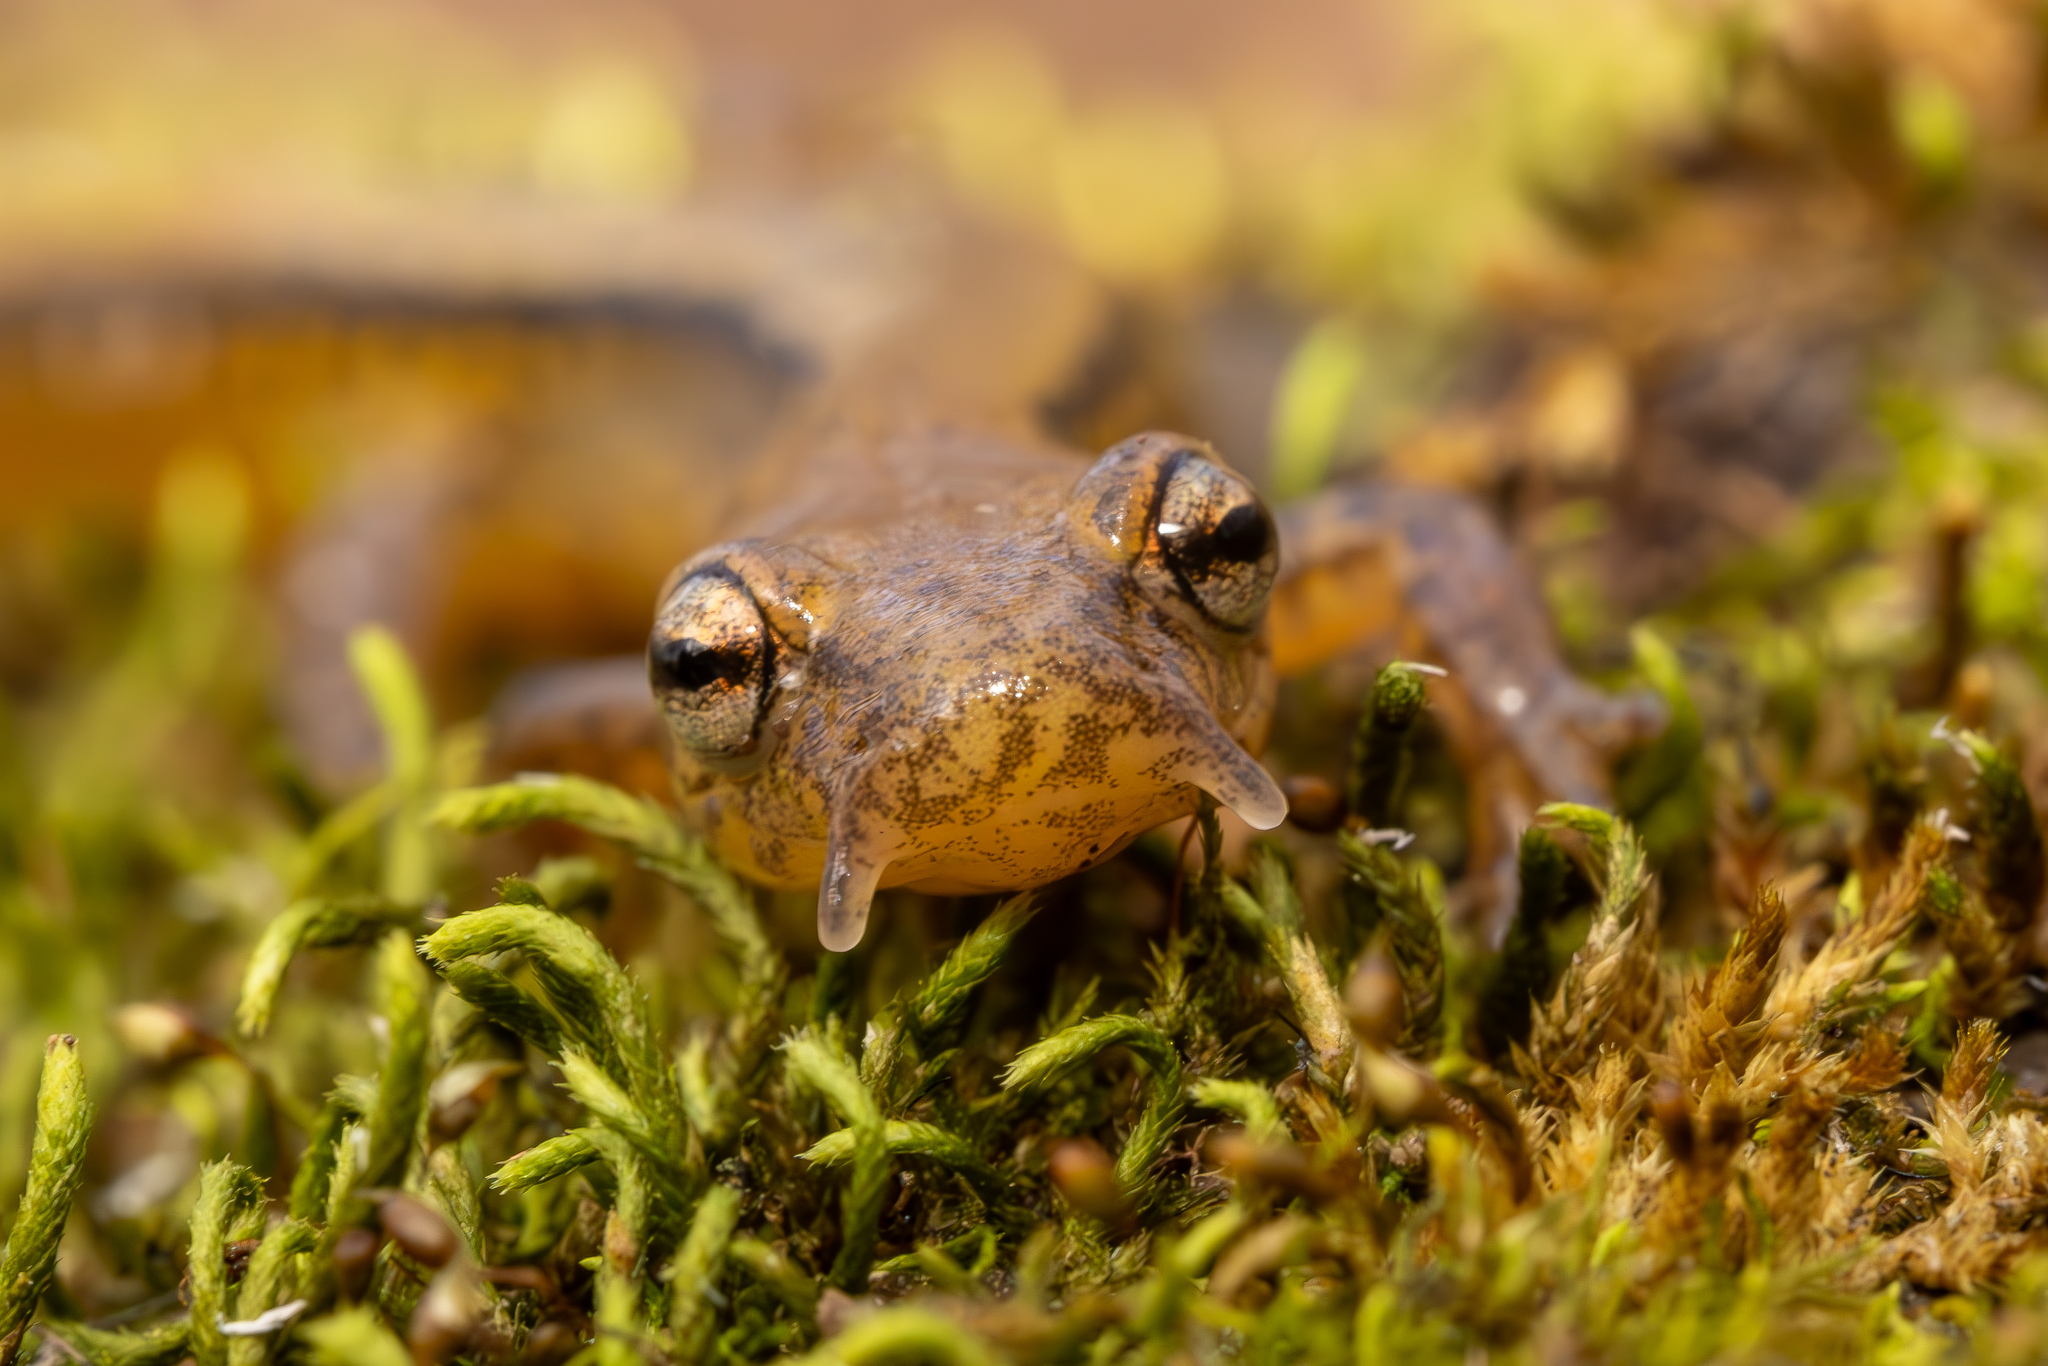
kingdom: Animalia
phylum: Chordata
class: Amphibia
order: Caudata
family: Plethodontidae
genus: Eurycea
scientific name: Eurycea cirrigera
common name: Southern two-lined salamander
